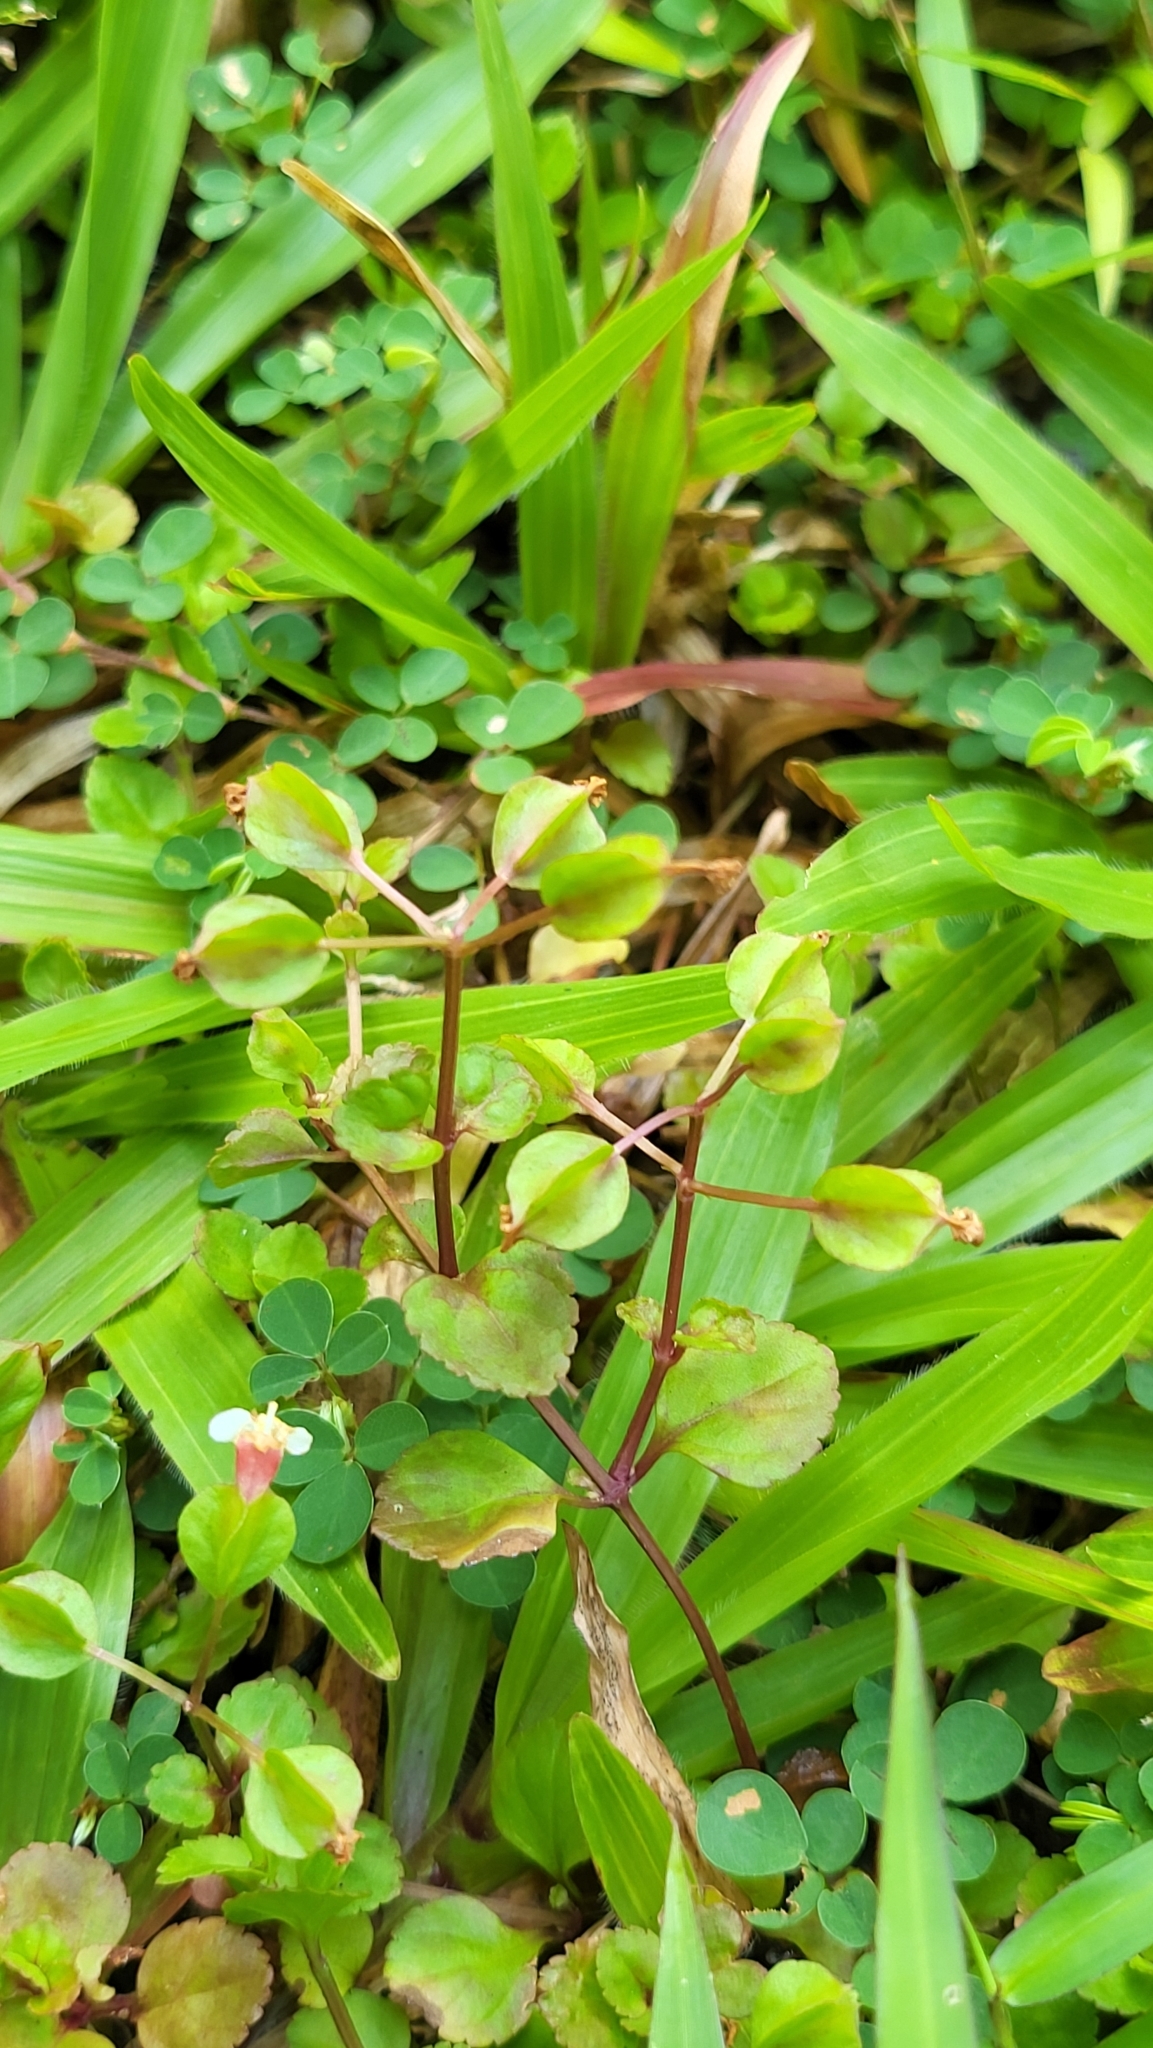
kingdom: Plantae
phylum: Tracheophyta
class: Magnoliopsida
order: Lamiales
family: Linderniaceae
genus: Legazpia
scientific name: Legazpia polygonoides
